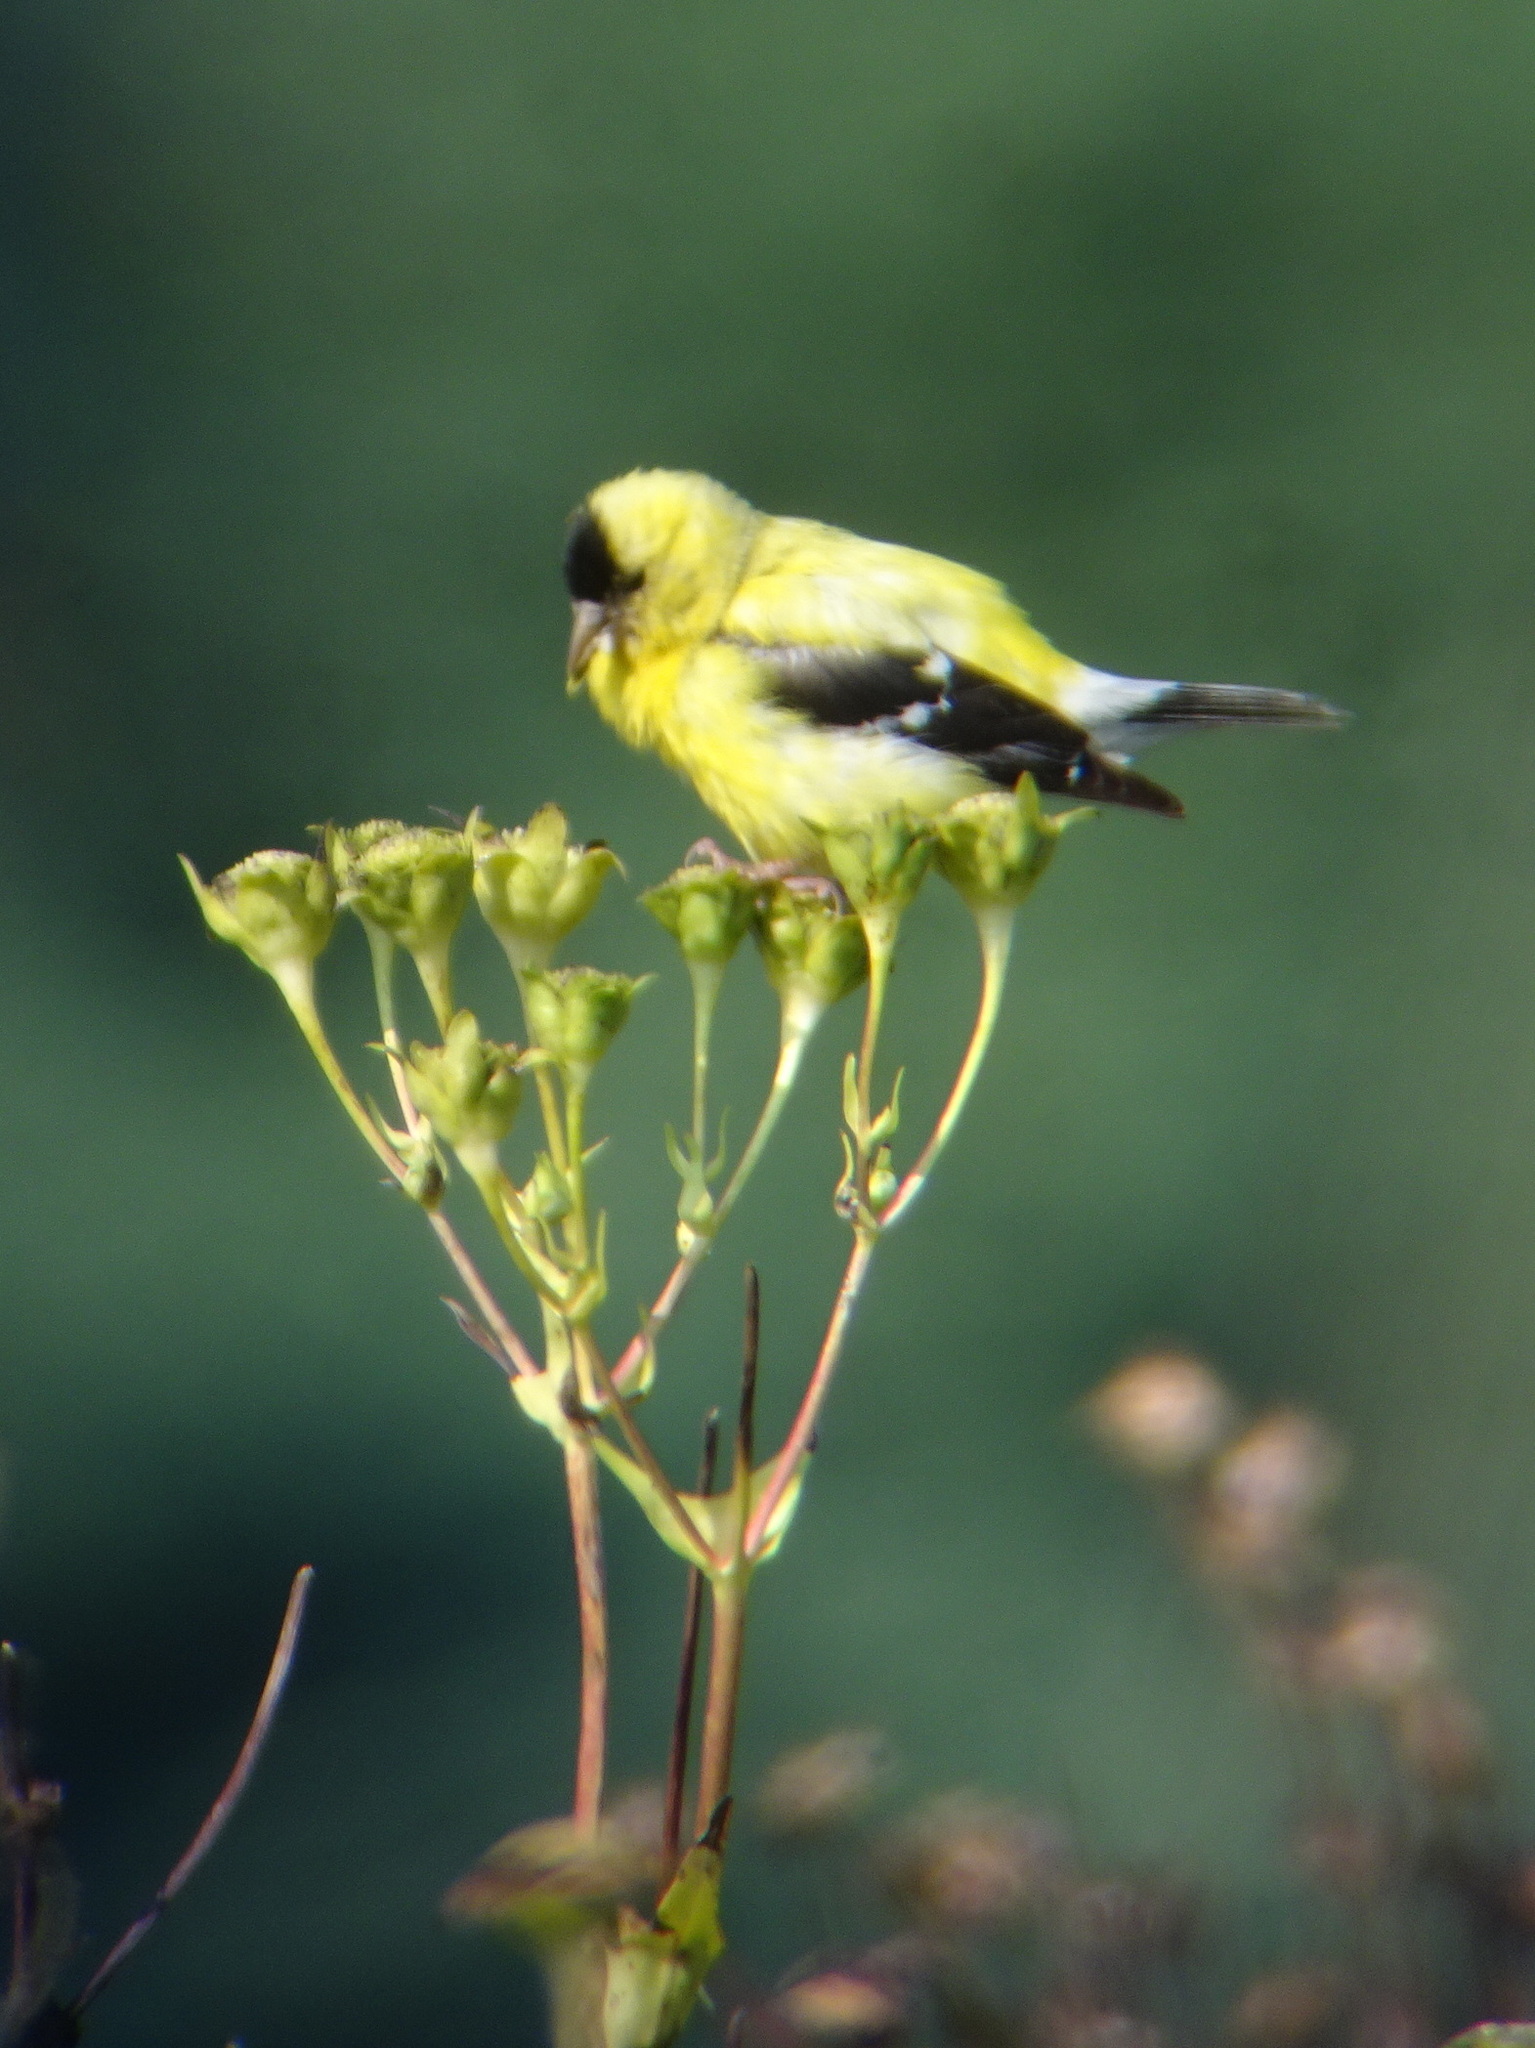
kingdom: Animalia
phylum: Chordata
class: Aves
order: Passeriformes
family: Fringillidae
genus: Spinus
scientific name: Spinus tristis
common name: American goldfinch
